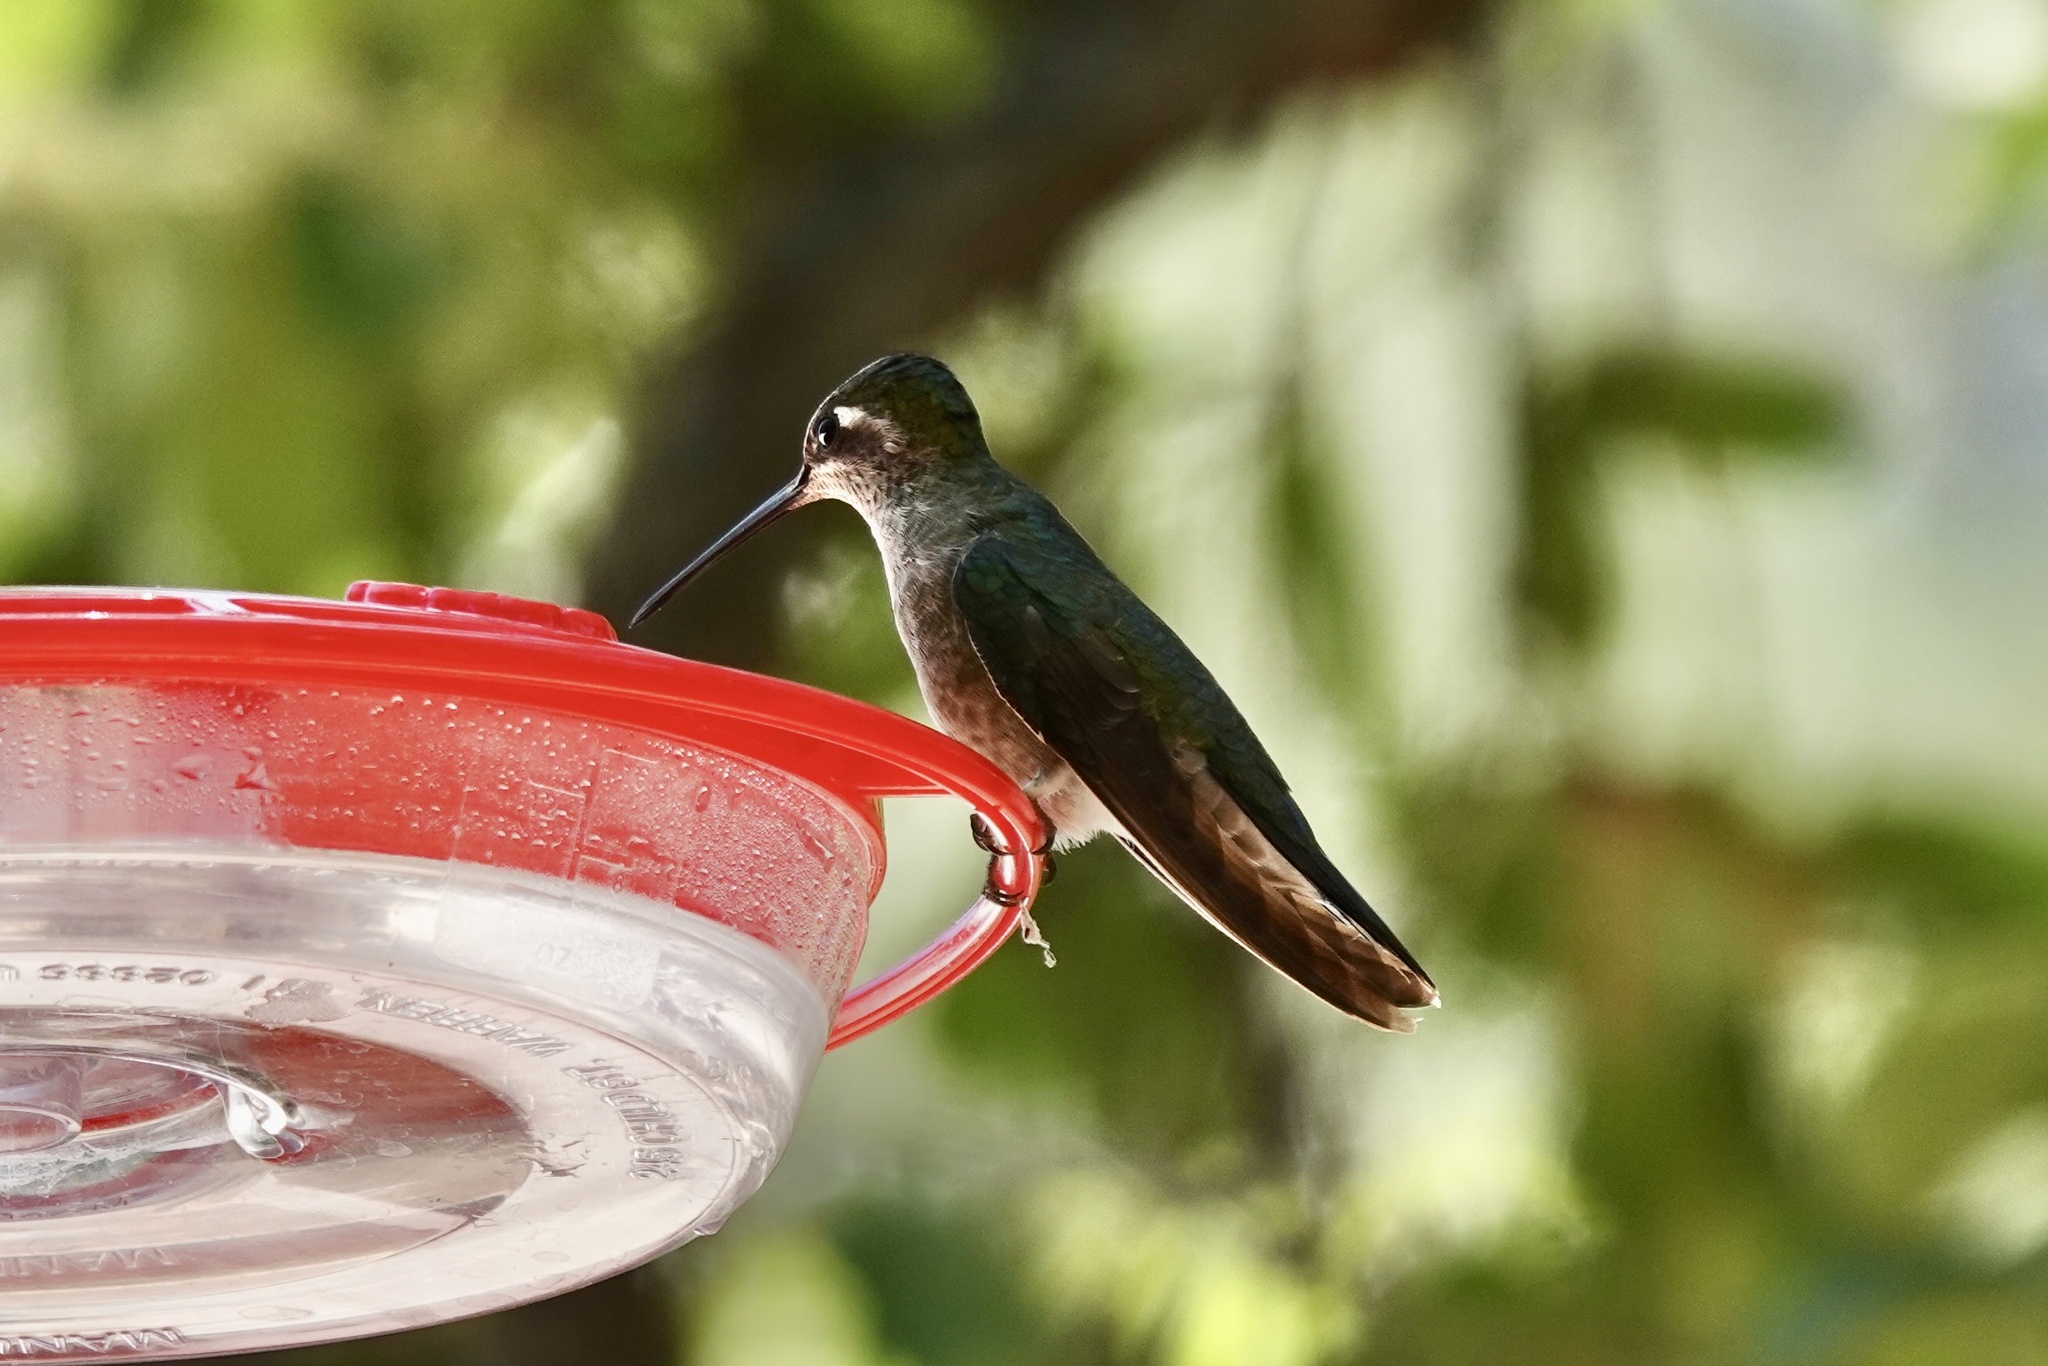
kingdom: Animalia
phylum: Chordata
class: Aves
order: Apodiformes
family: Trochilidae
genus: Eugenes
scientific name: Eugenes fulgens
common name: Magnificent hummingbird
